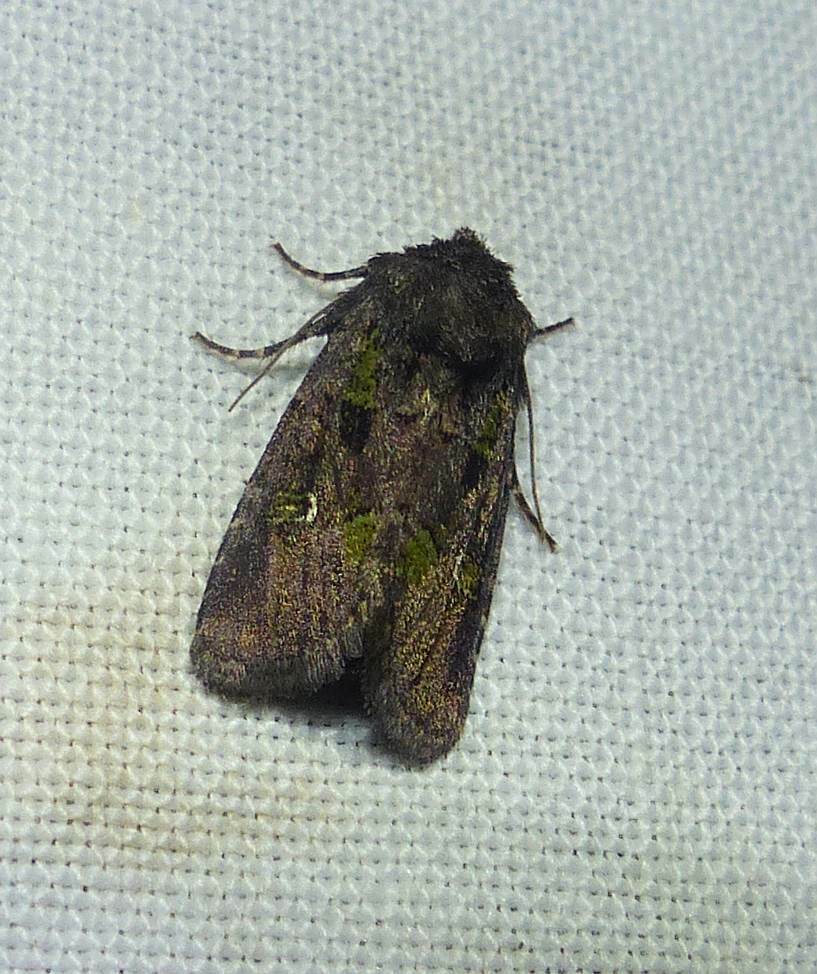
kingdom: Animalia
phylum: Arthropoda
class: Insecta
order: Lepidoptera
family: Noctuidae
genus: Lacinipolia
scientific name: Lacinipolia renigera
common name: Kidney-spotted minor
